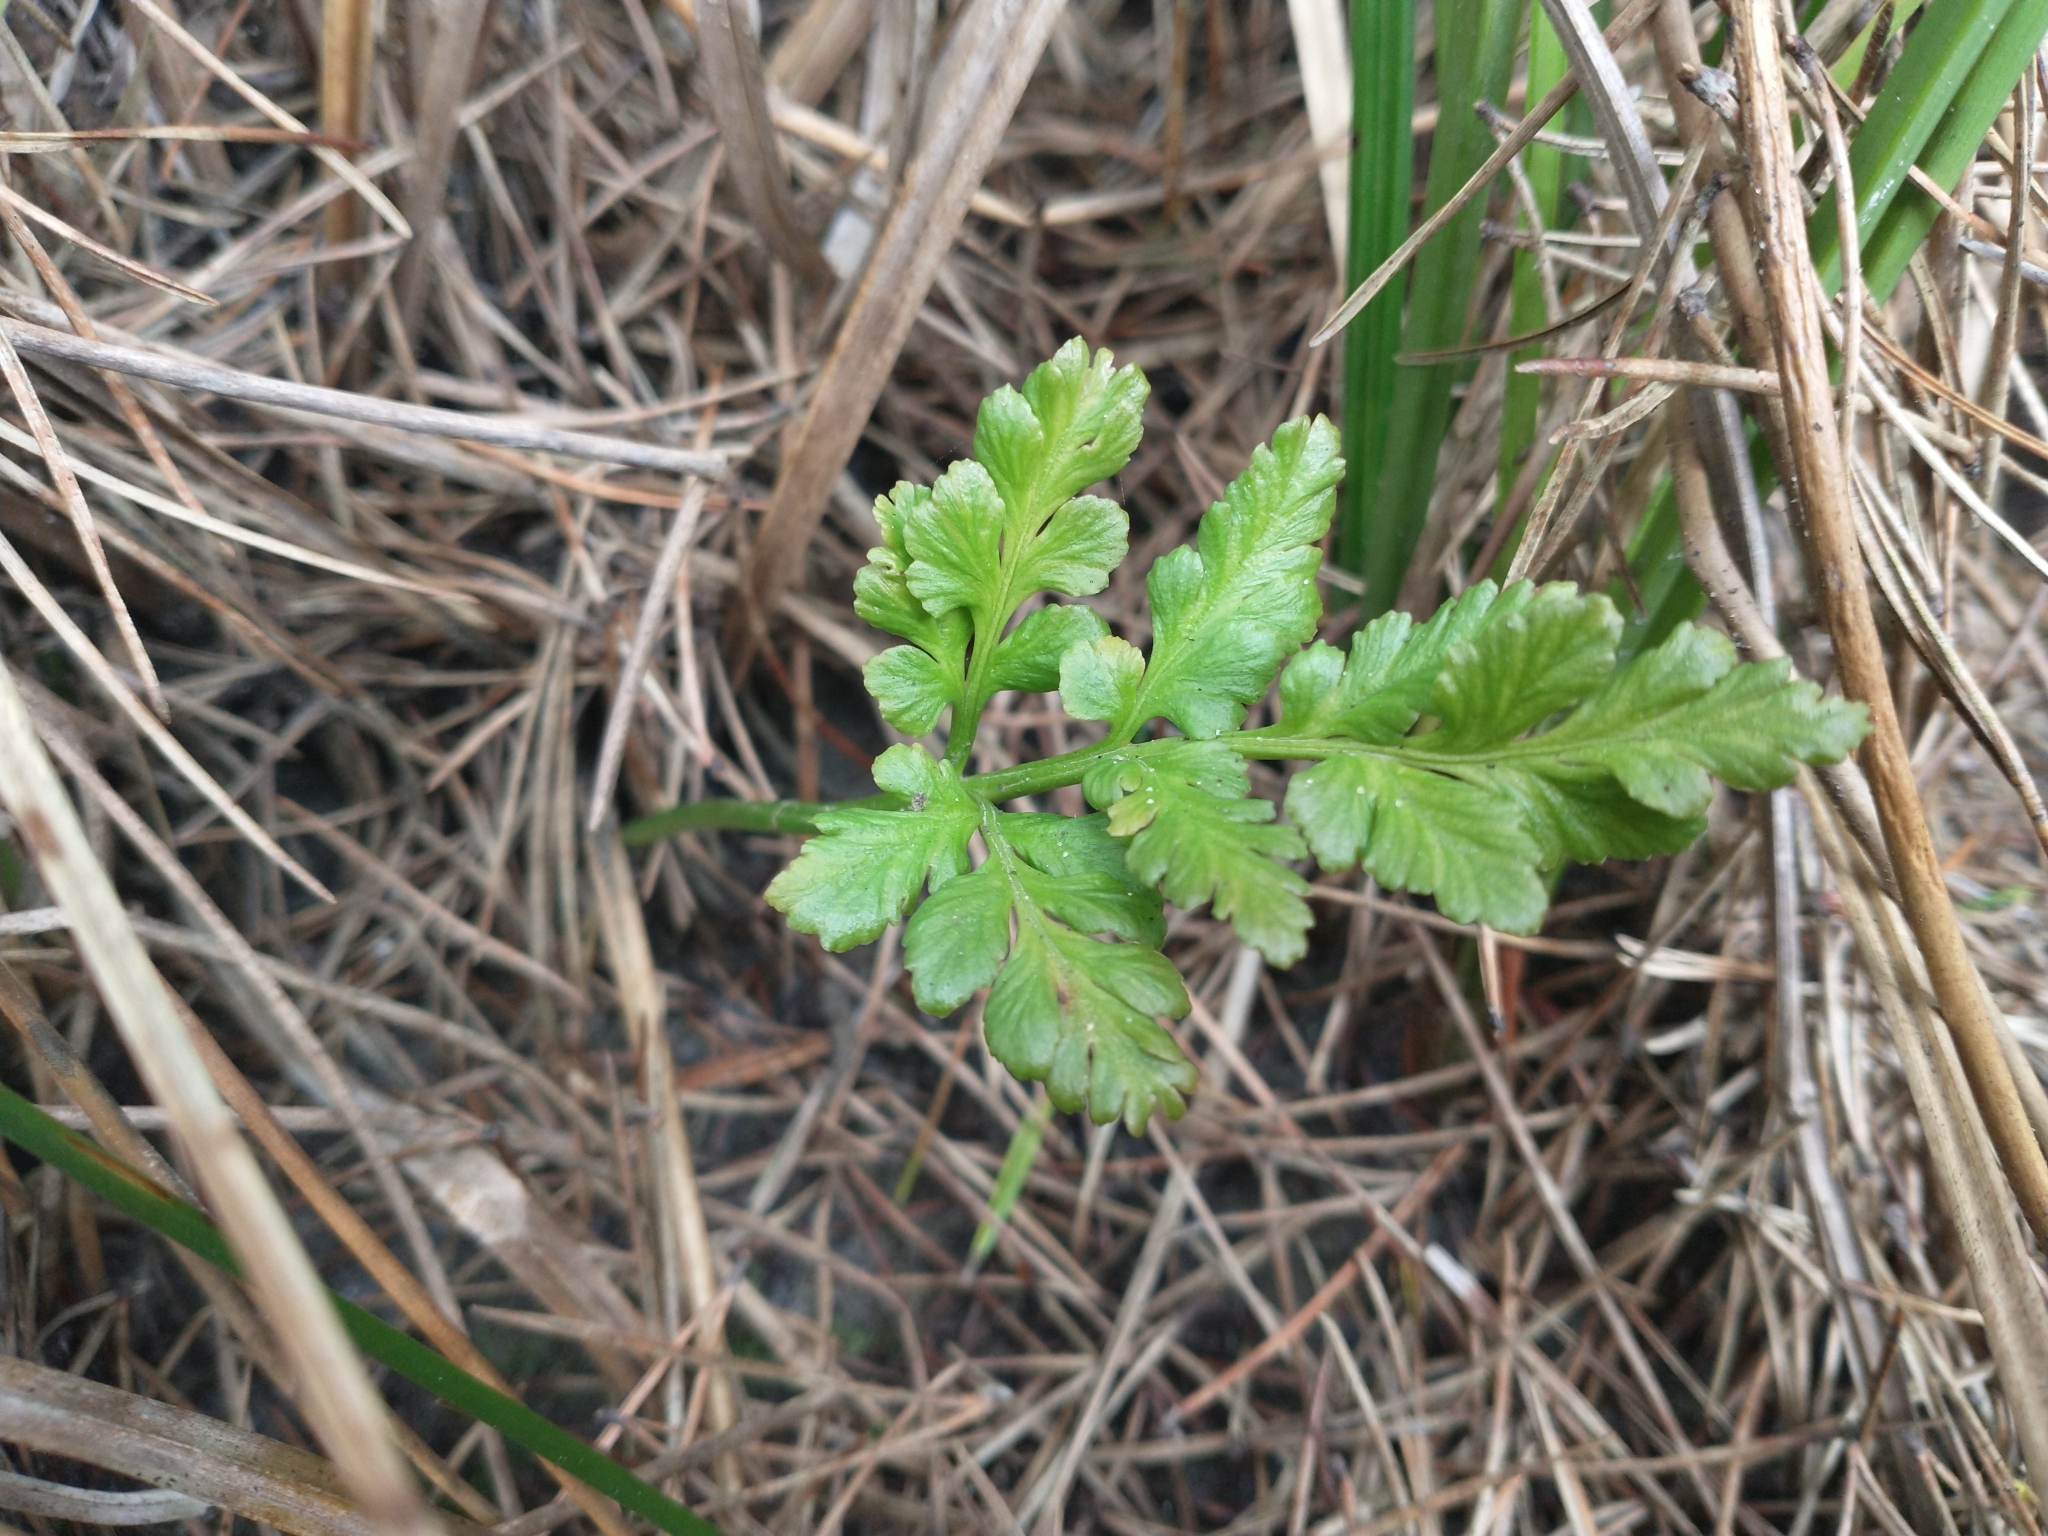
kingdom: Plantae
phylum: Tracheophyta
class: Polypodiopsida
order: Ophioglossales
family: Ophioglossaceae
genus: Sceptridium
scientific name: Sceptridium multifidum
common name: Leathery grape fern
